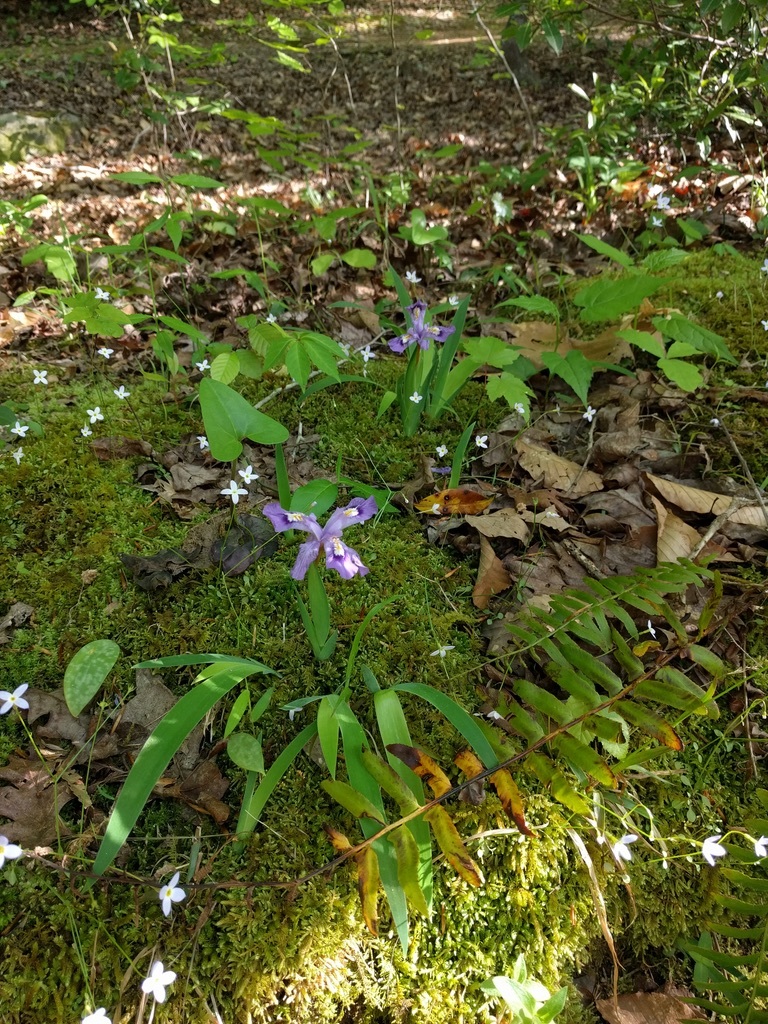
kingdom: Plantae
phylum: Tracheophyta
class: Liliopsida
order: Asparagales
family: Iridaceae
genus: Iris
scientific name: Iris cristata
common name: Crested iris
